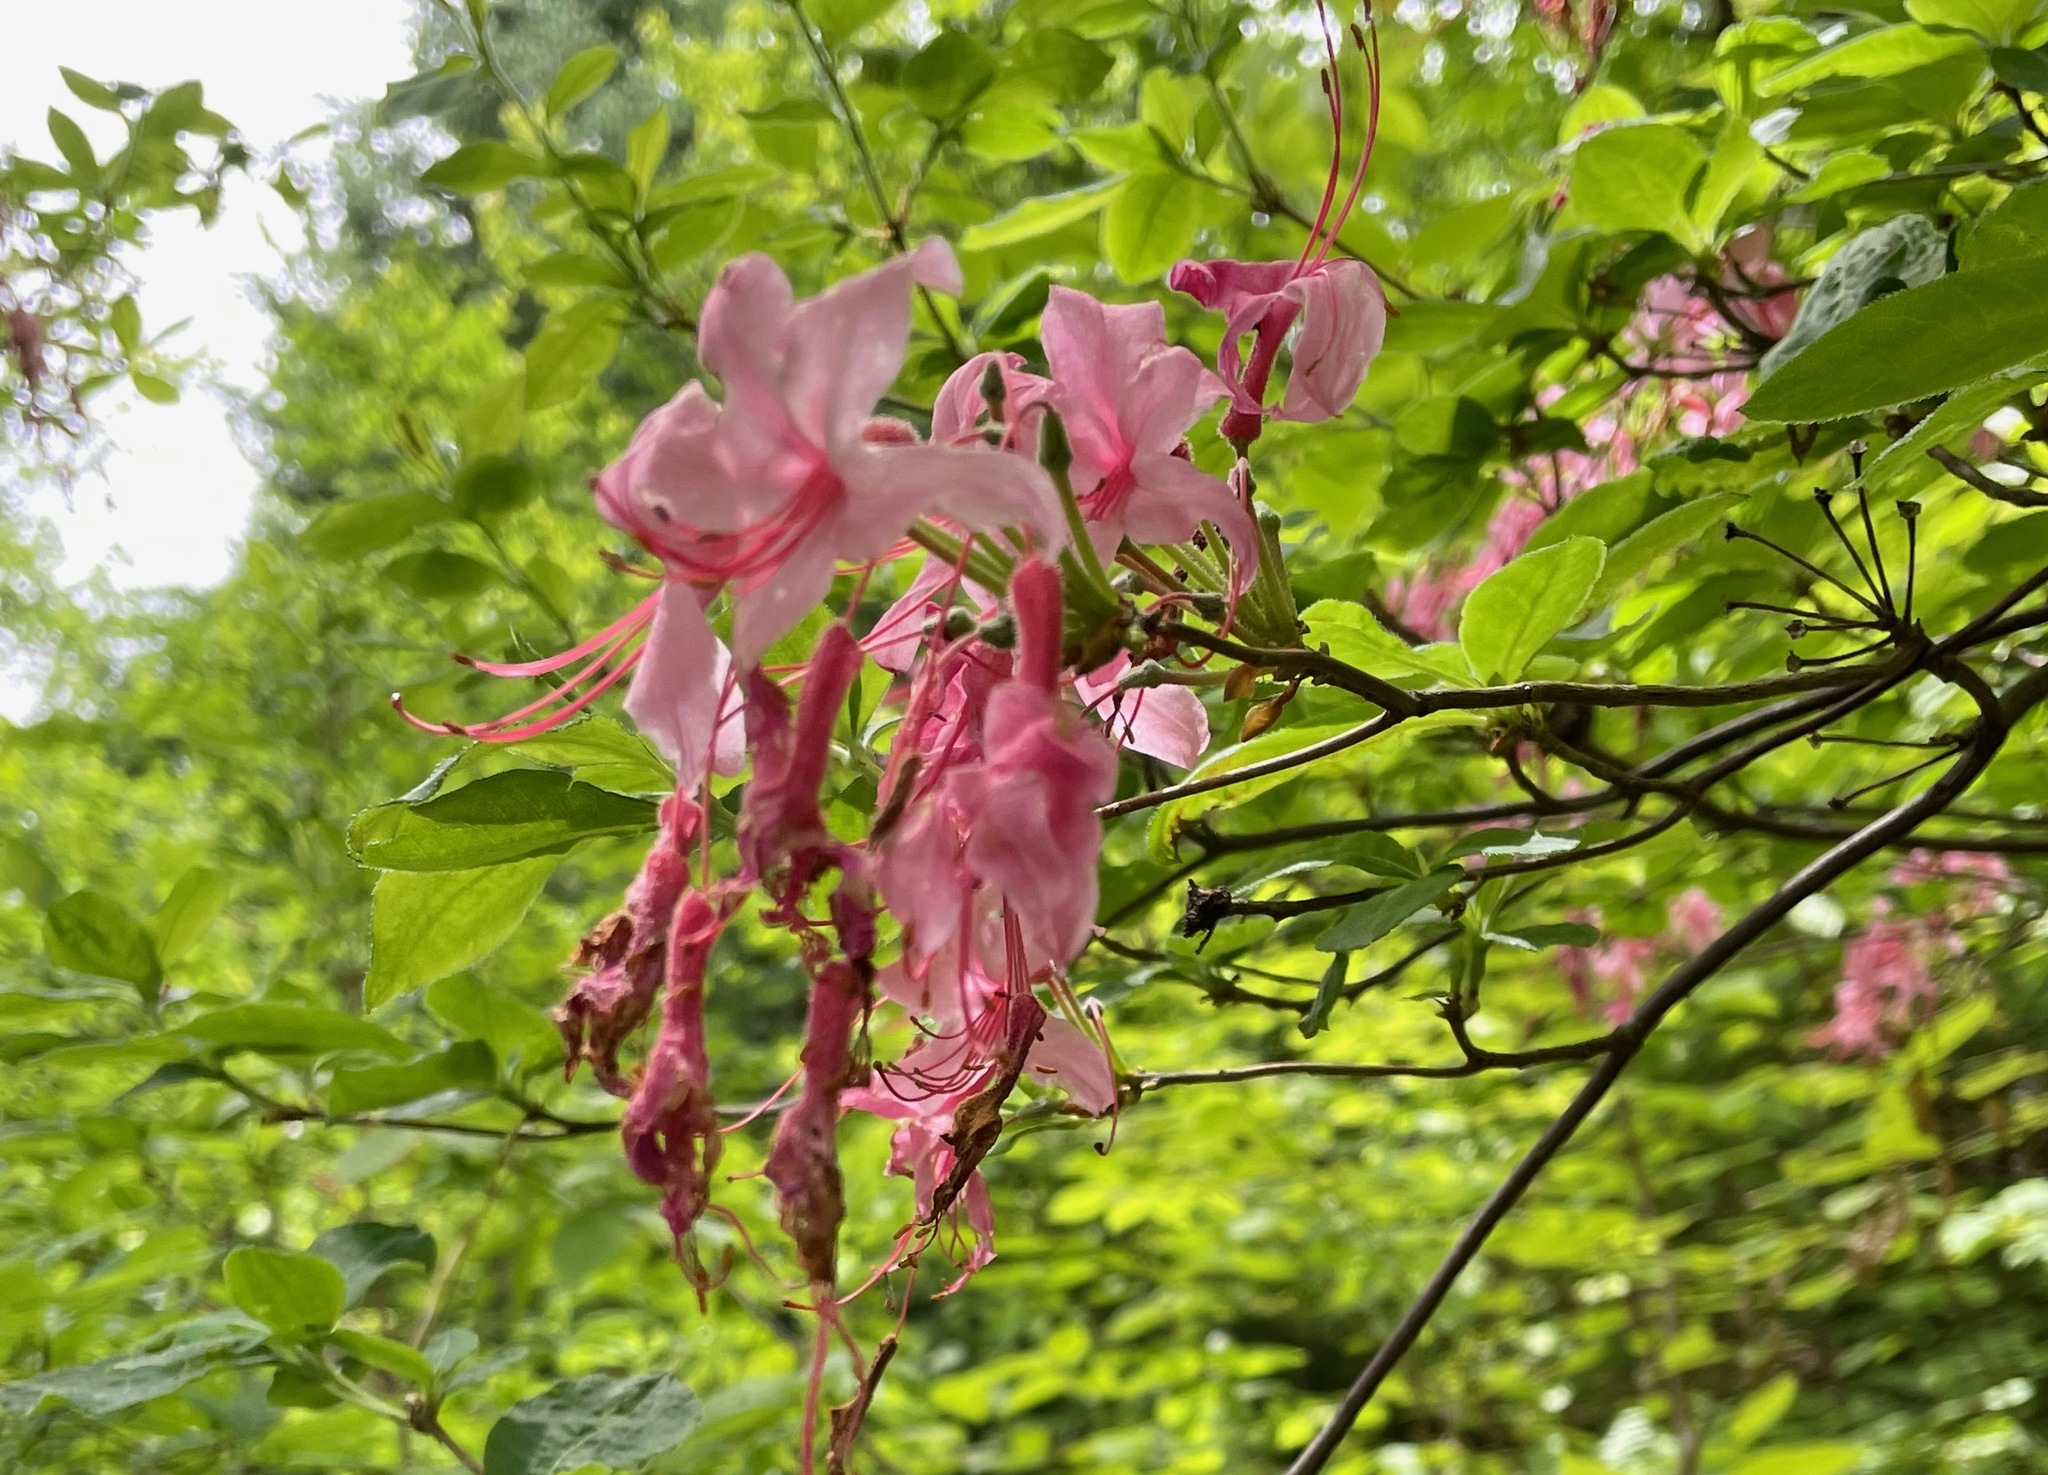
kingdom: Plantae
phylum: Tracheophyta
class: Magnoliopsida
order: Ericales
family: Ericaceae
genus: Rhododendron
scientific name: Rhododendron roseum
